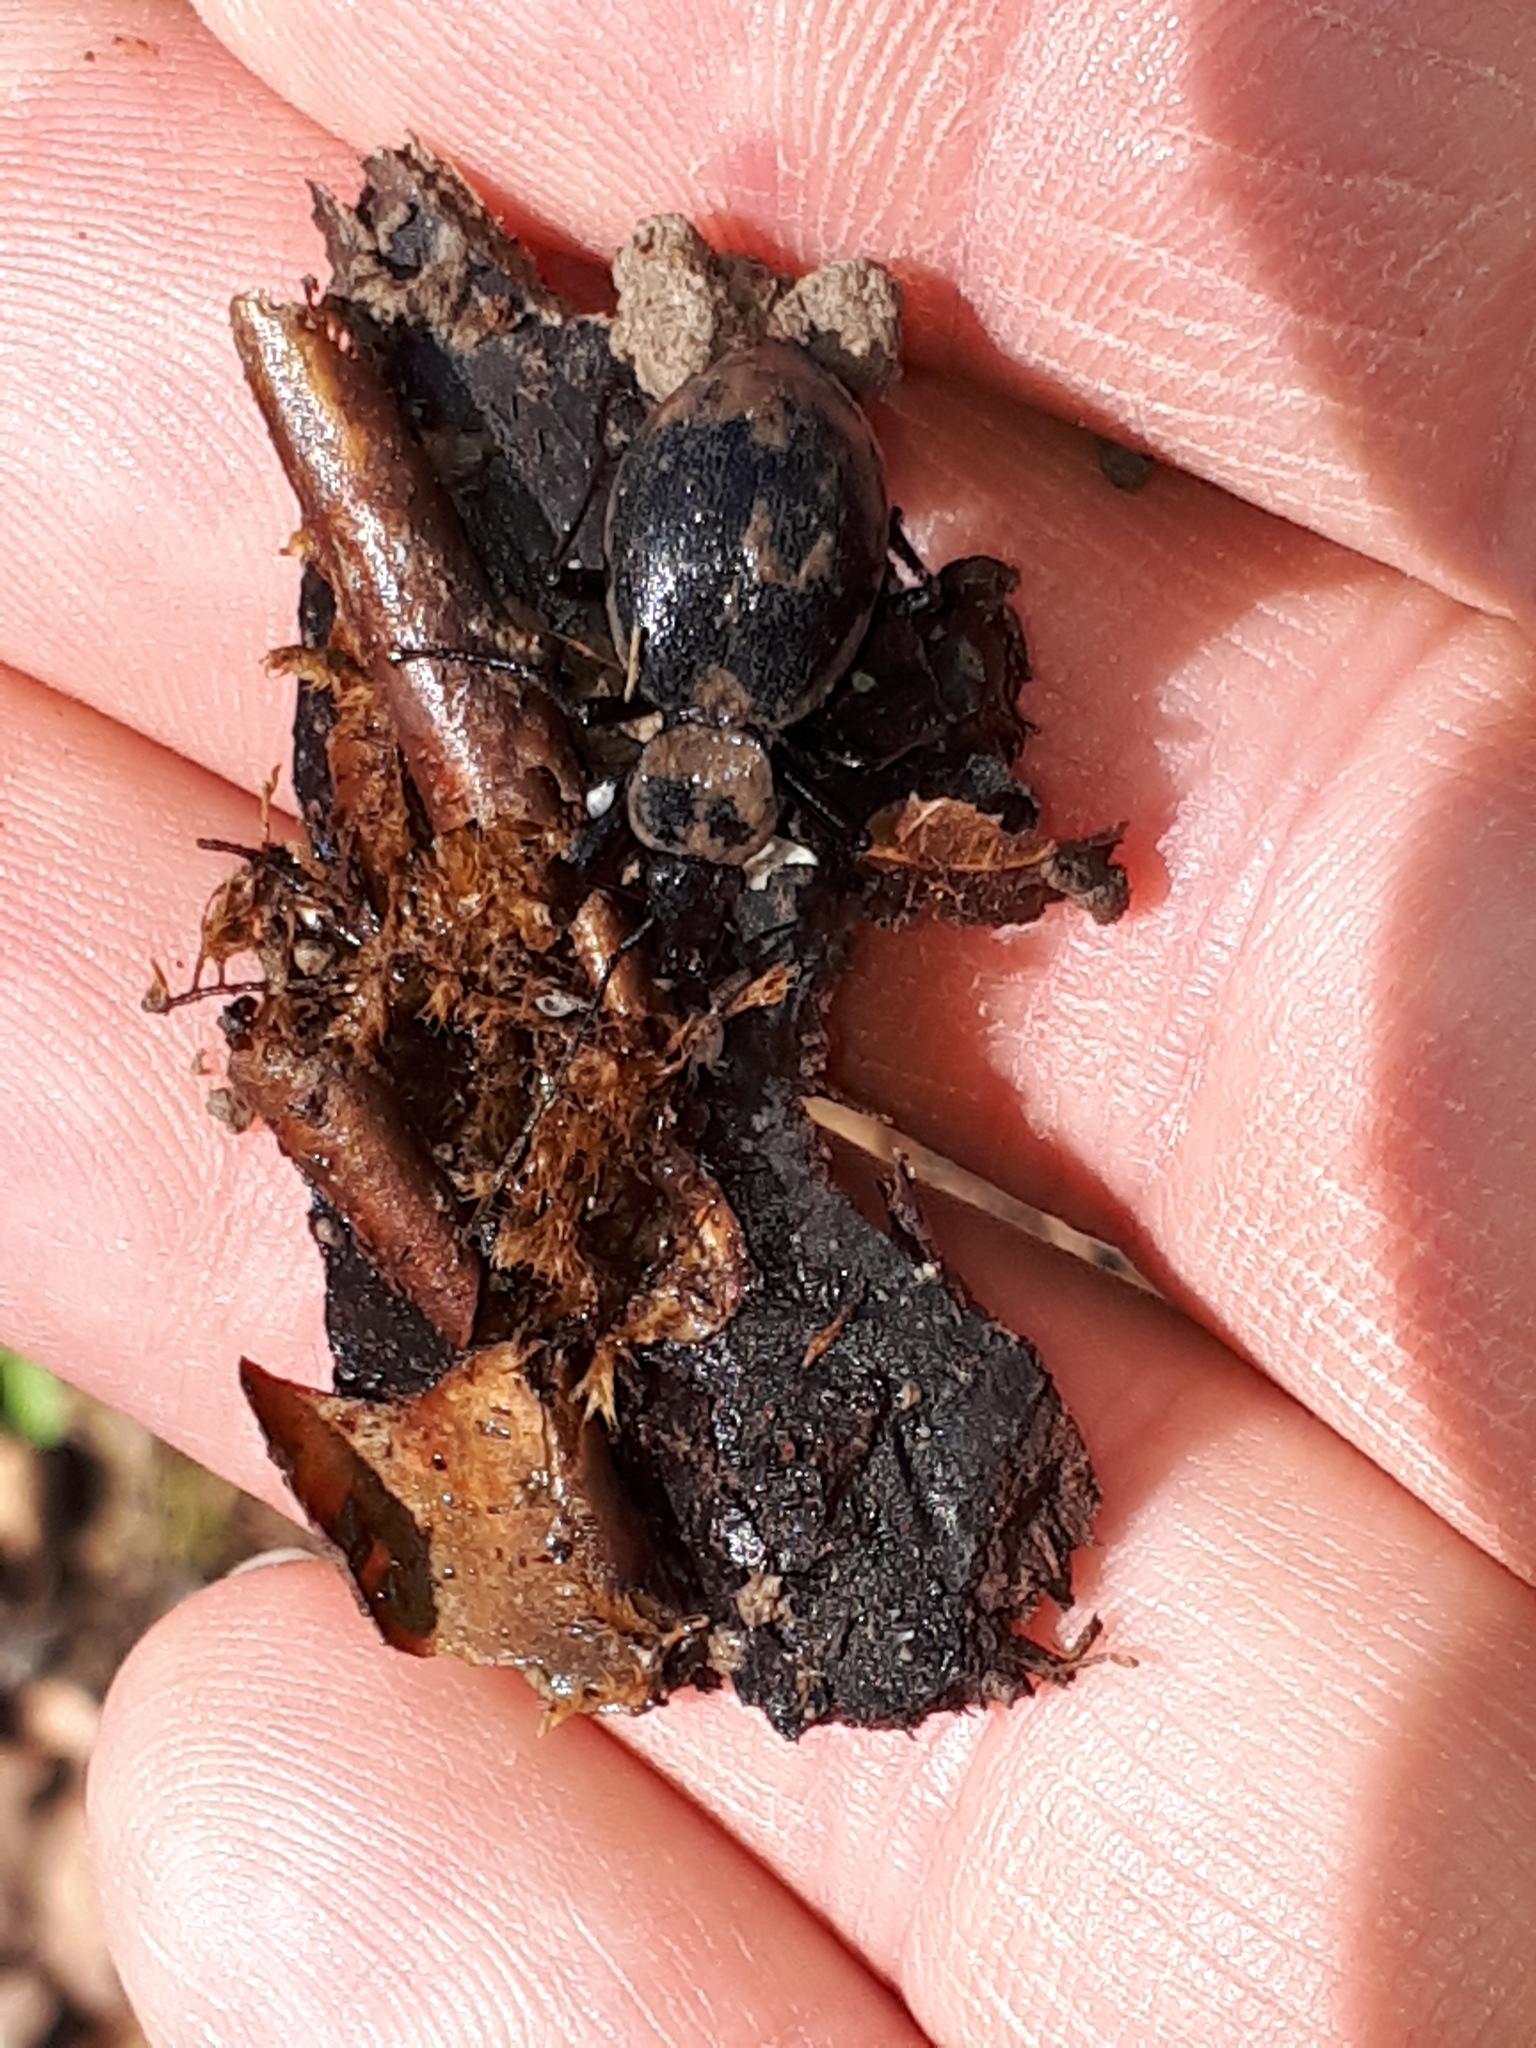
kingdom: Animalia
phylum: Arthropoda
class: Insecta
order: Coleoptera
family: Carabidae
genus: Cychrus
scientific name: Cychrus caraboides
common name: Snail hunter
